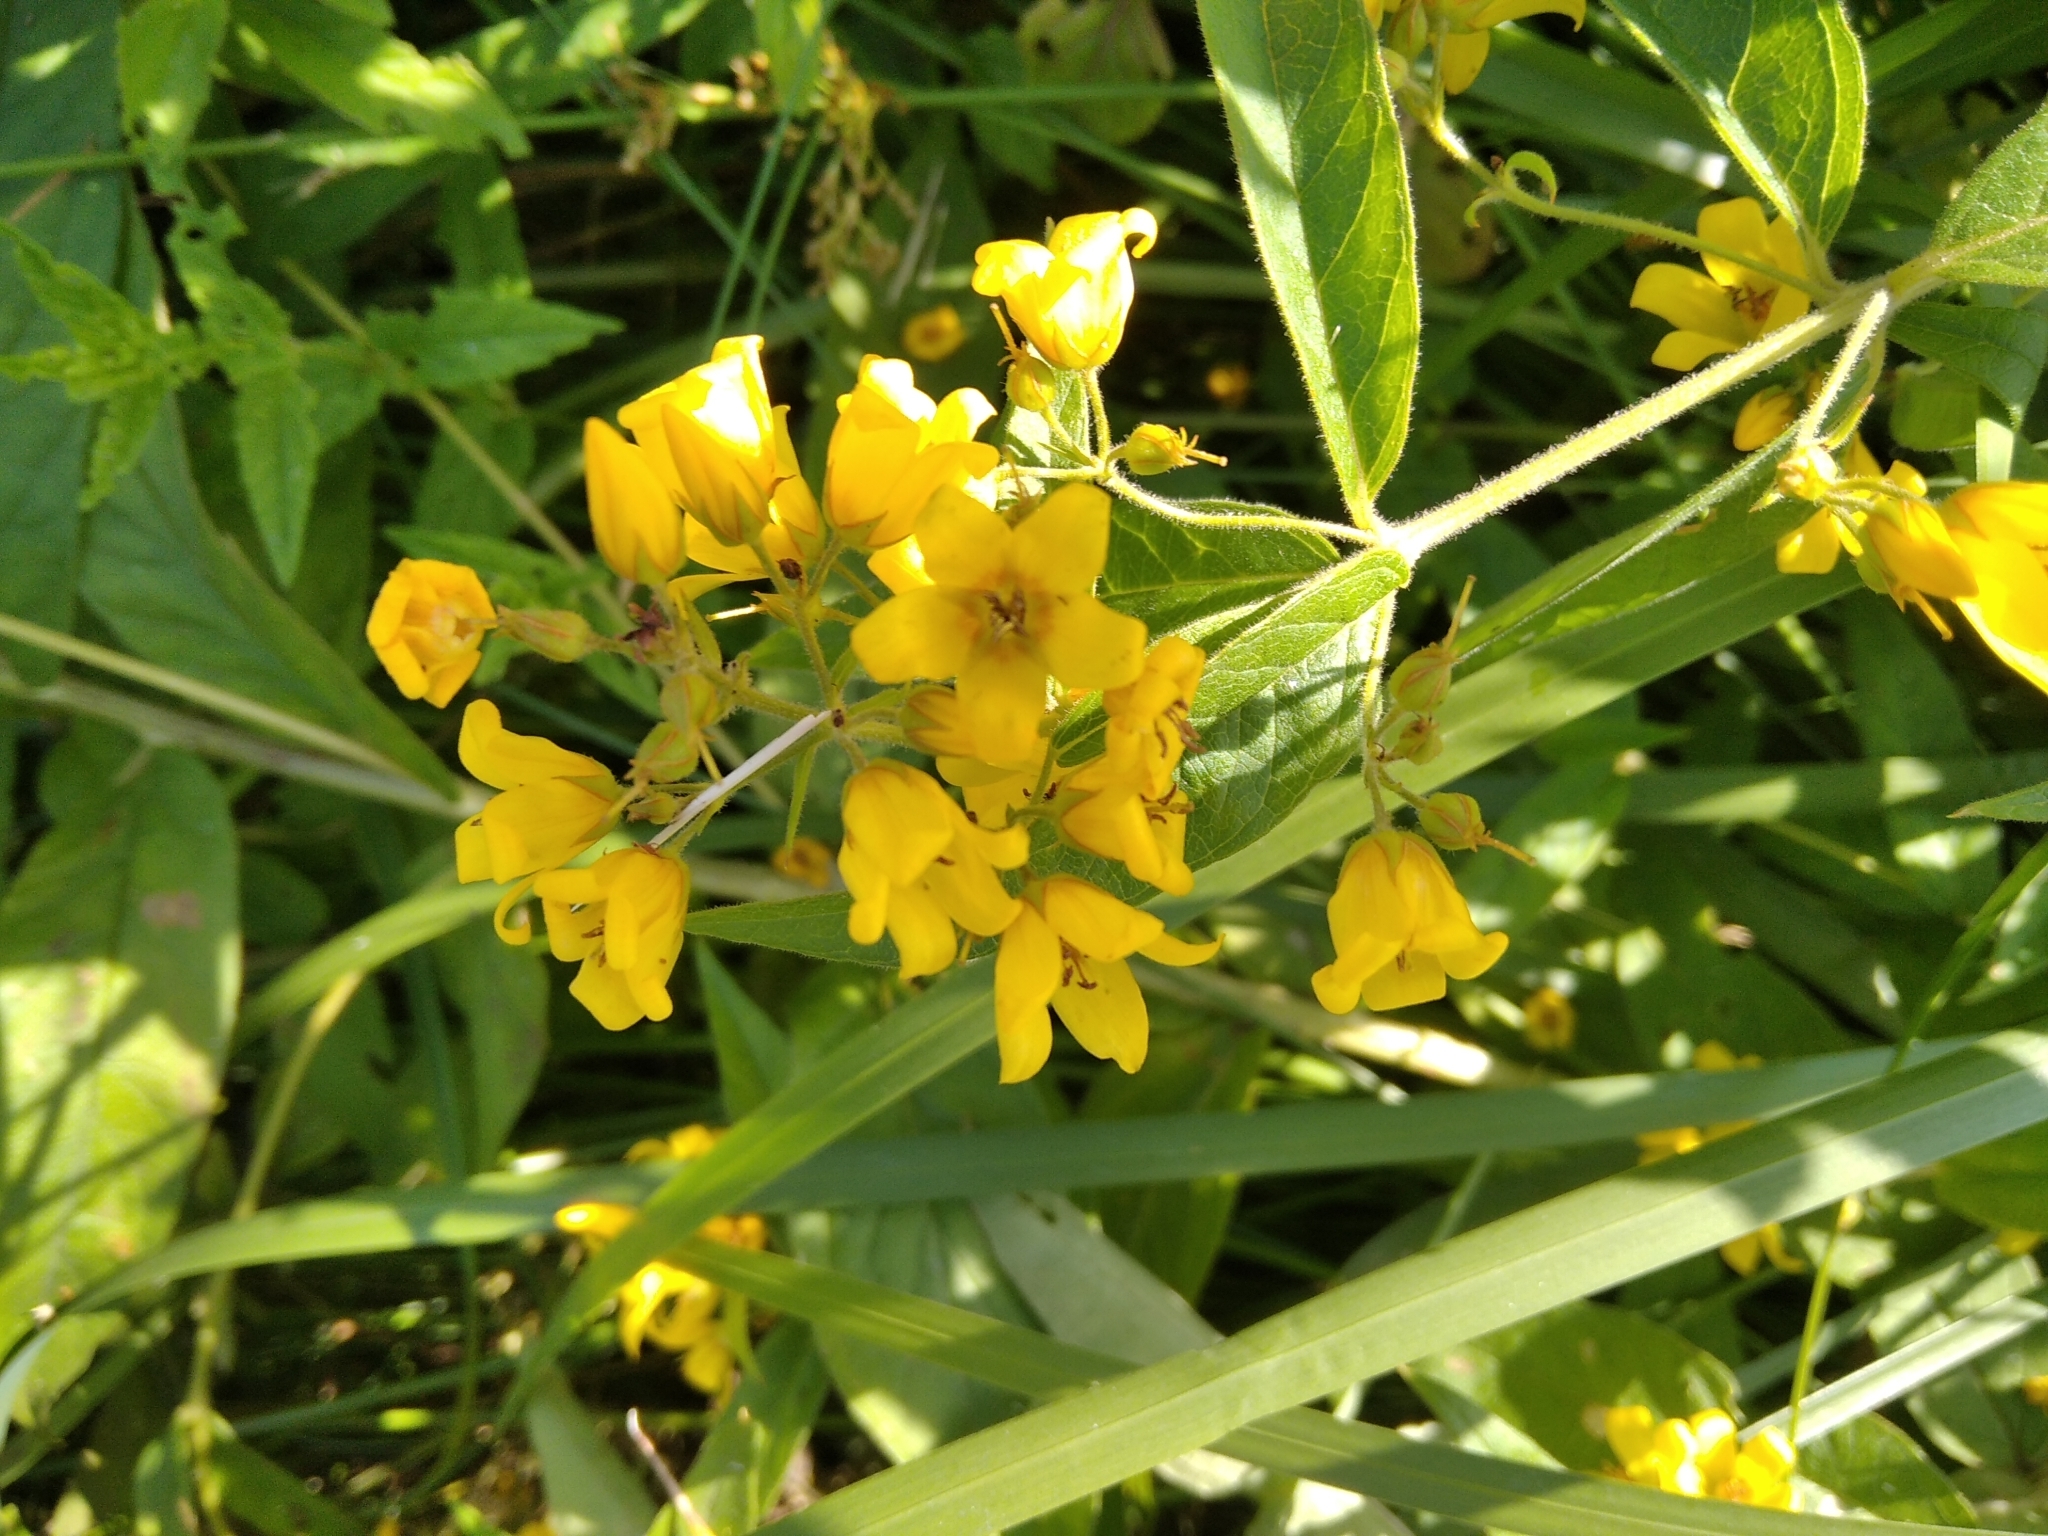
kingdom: Plantae
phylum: Tracheophyta
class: Magnoliopsida
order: Ericales
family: Primulaceae
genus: Lysimachia
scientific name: Lysimachia vulgaris
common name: Yellow loosestrife
